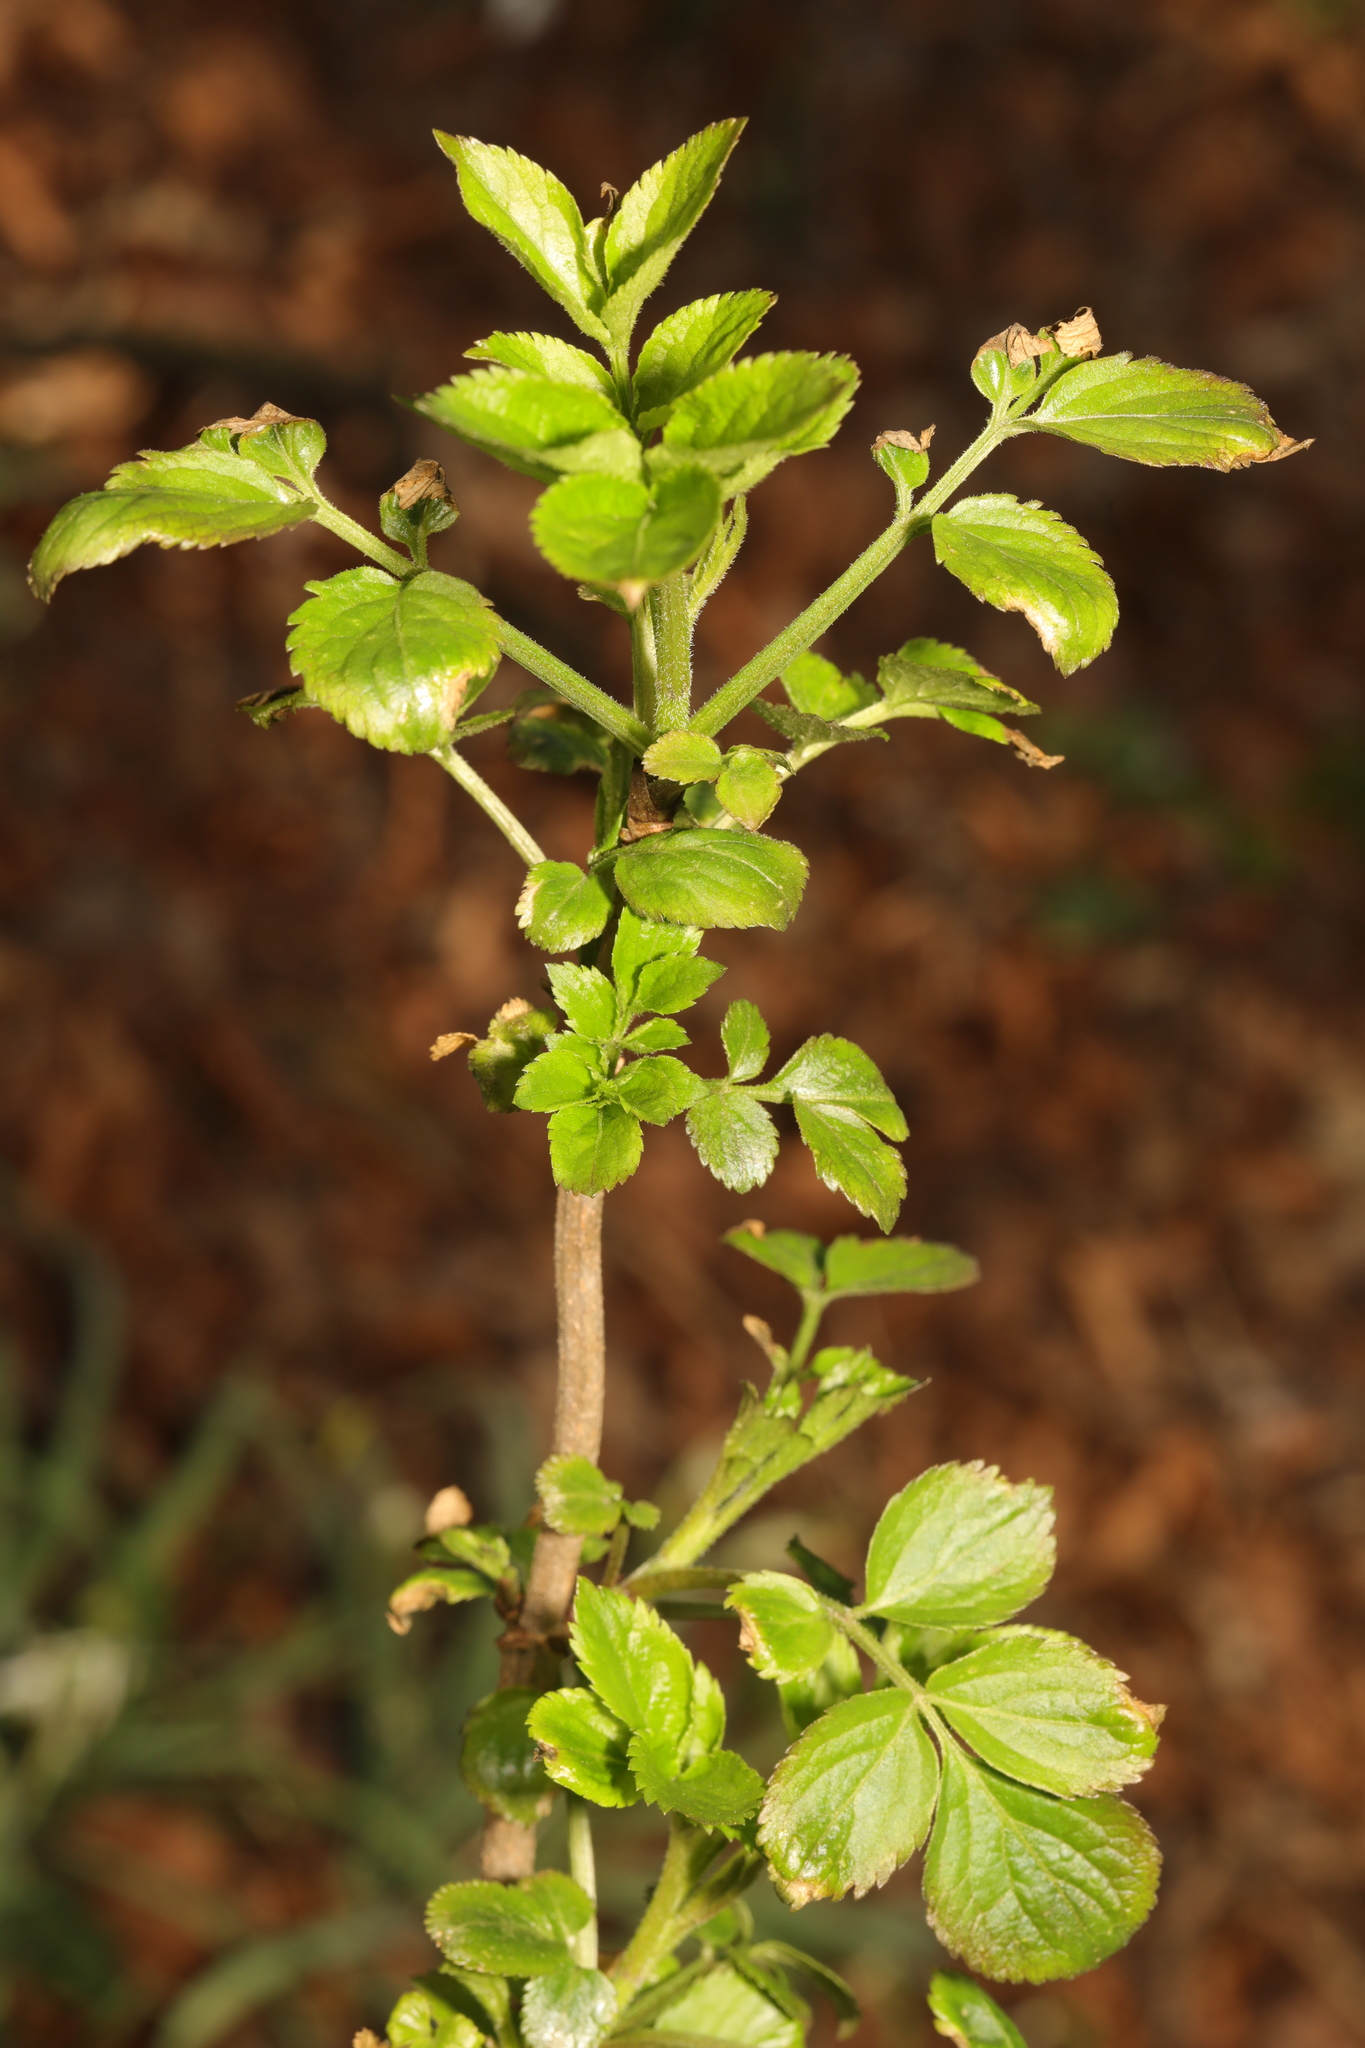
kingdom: Plantae
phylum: Tracheophyta
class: Magnoliopsida
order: Dipsacales
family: Viburnaceae
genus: Sambucus
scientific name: Sambucus nigra
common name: Elder
